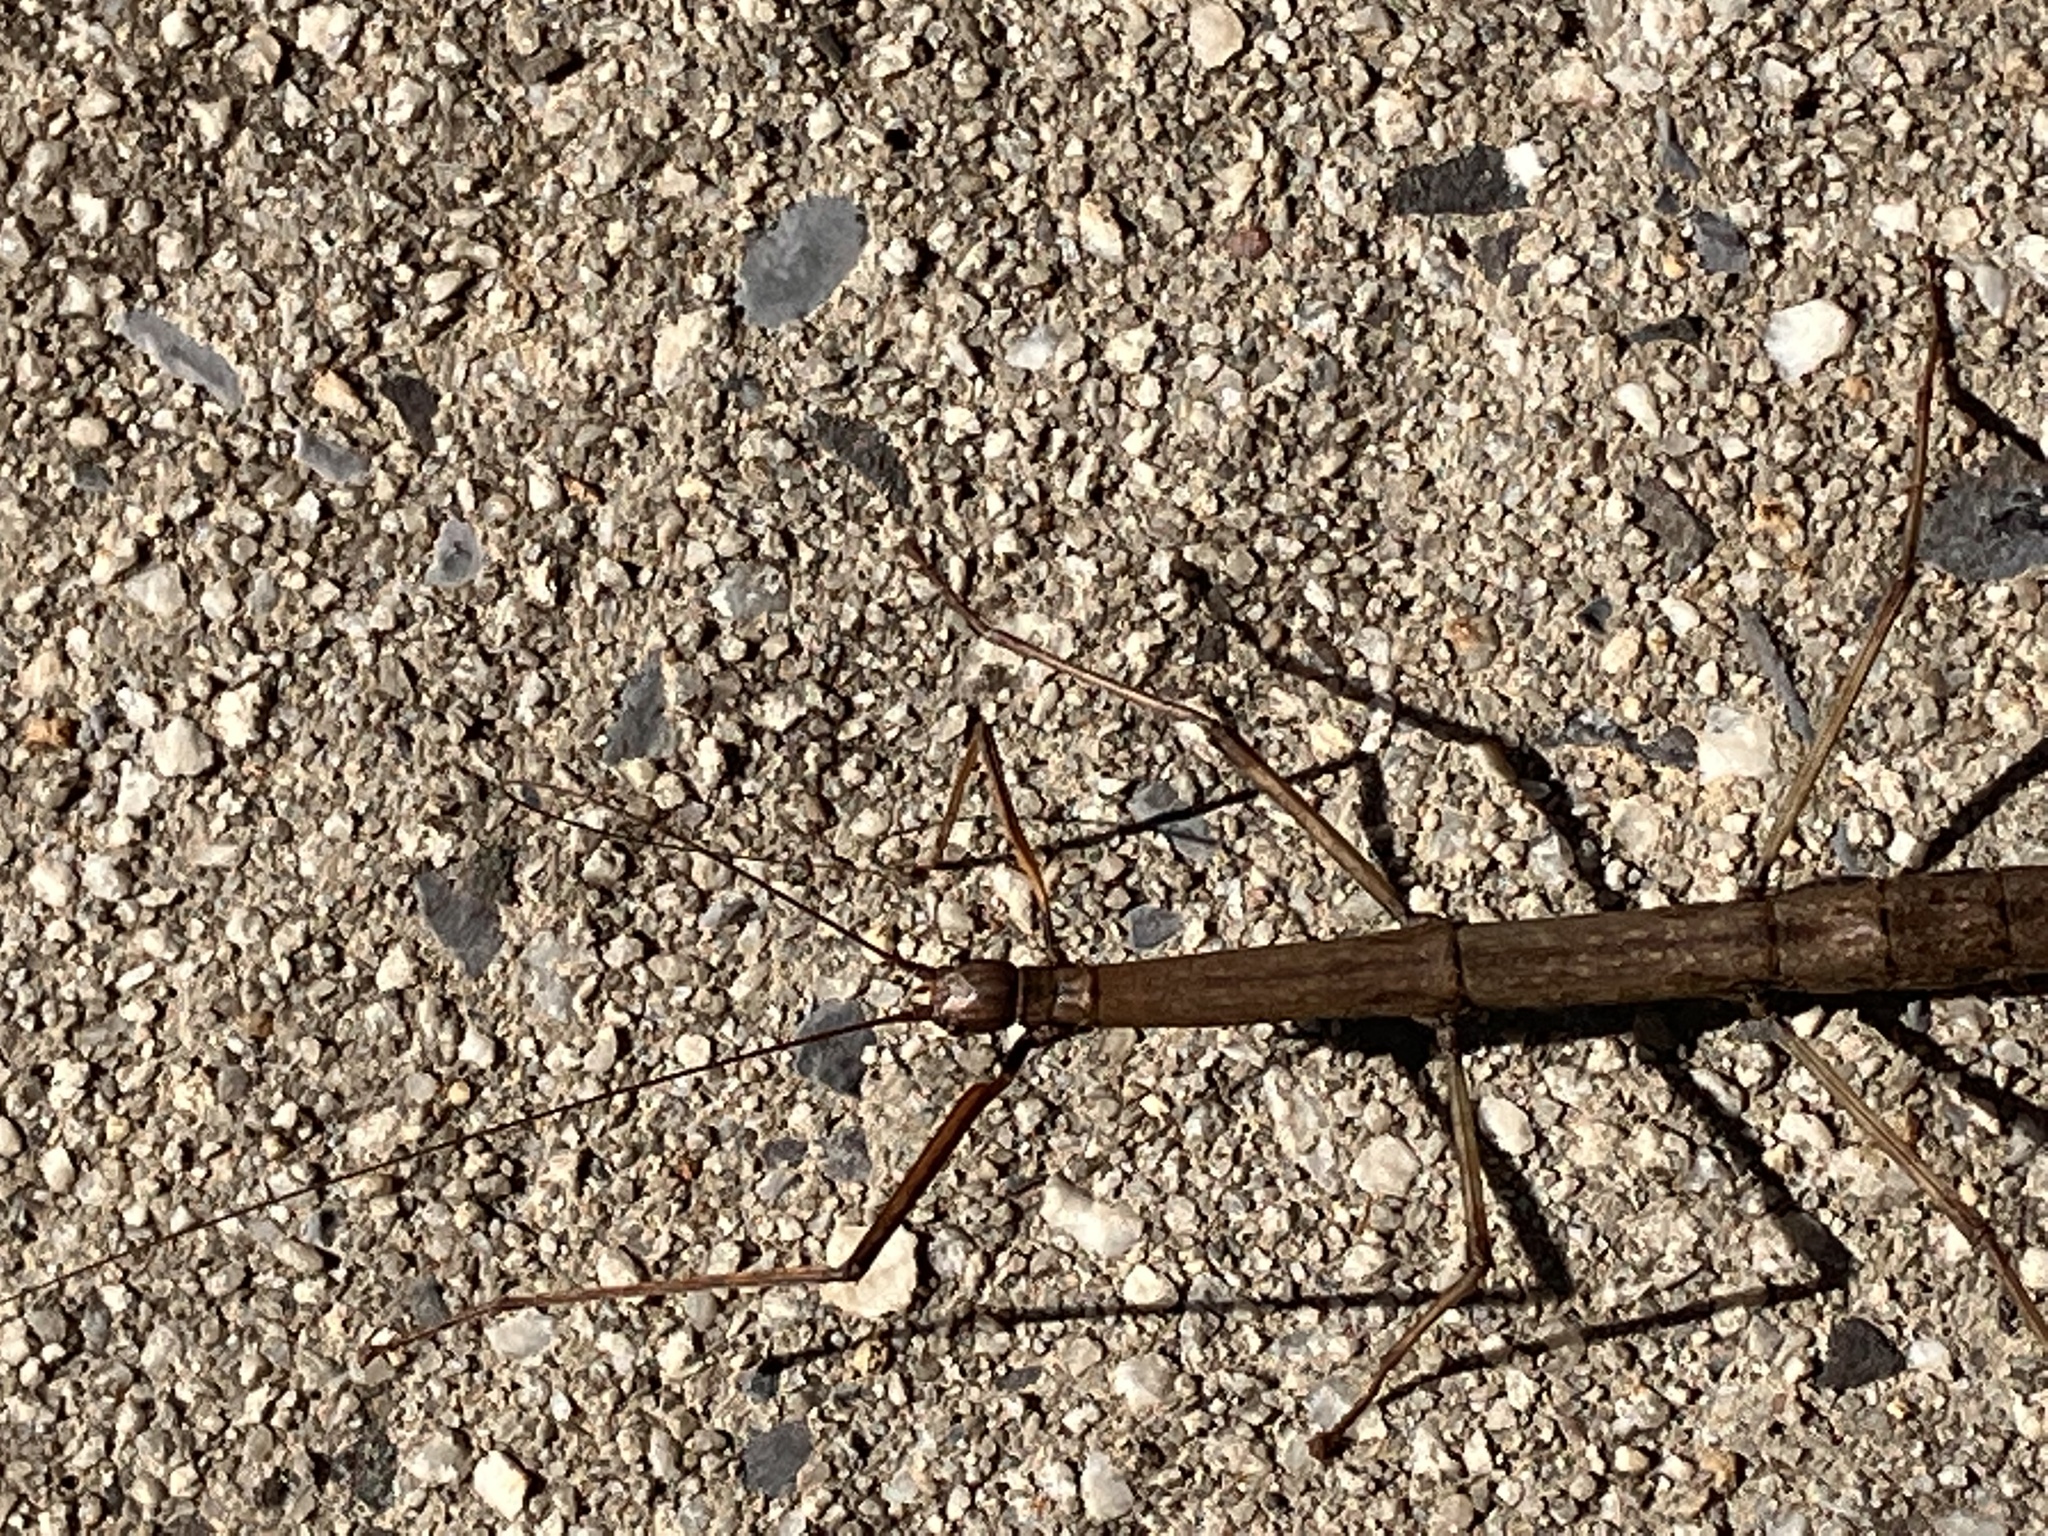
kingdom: Animalia
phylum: Arthropoda
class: Insecta
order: Phasmida
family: Diapheromeridae
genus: Diapheromera
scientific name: Diapheromera femorata
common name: Common american walkingstick
